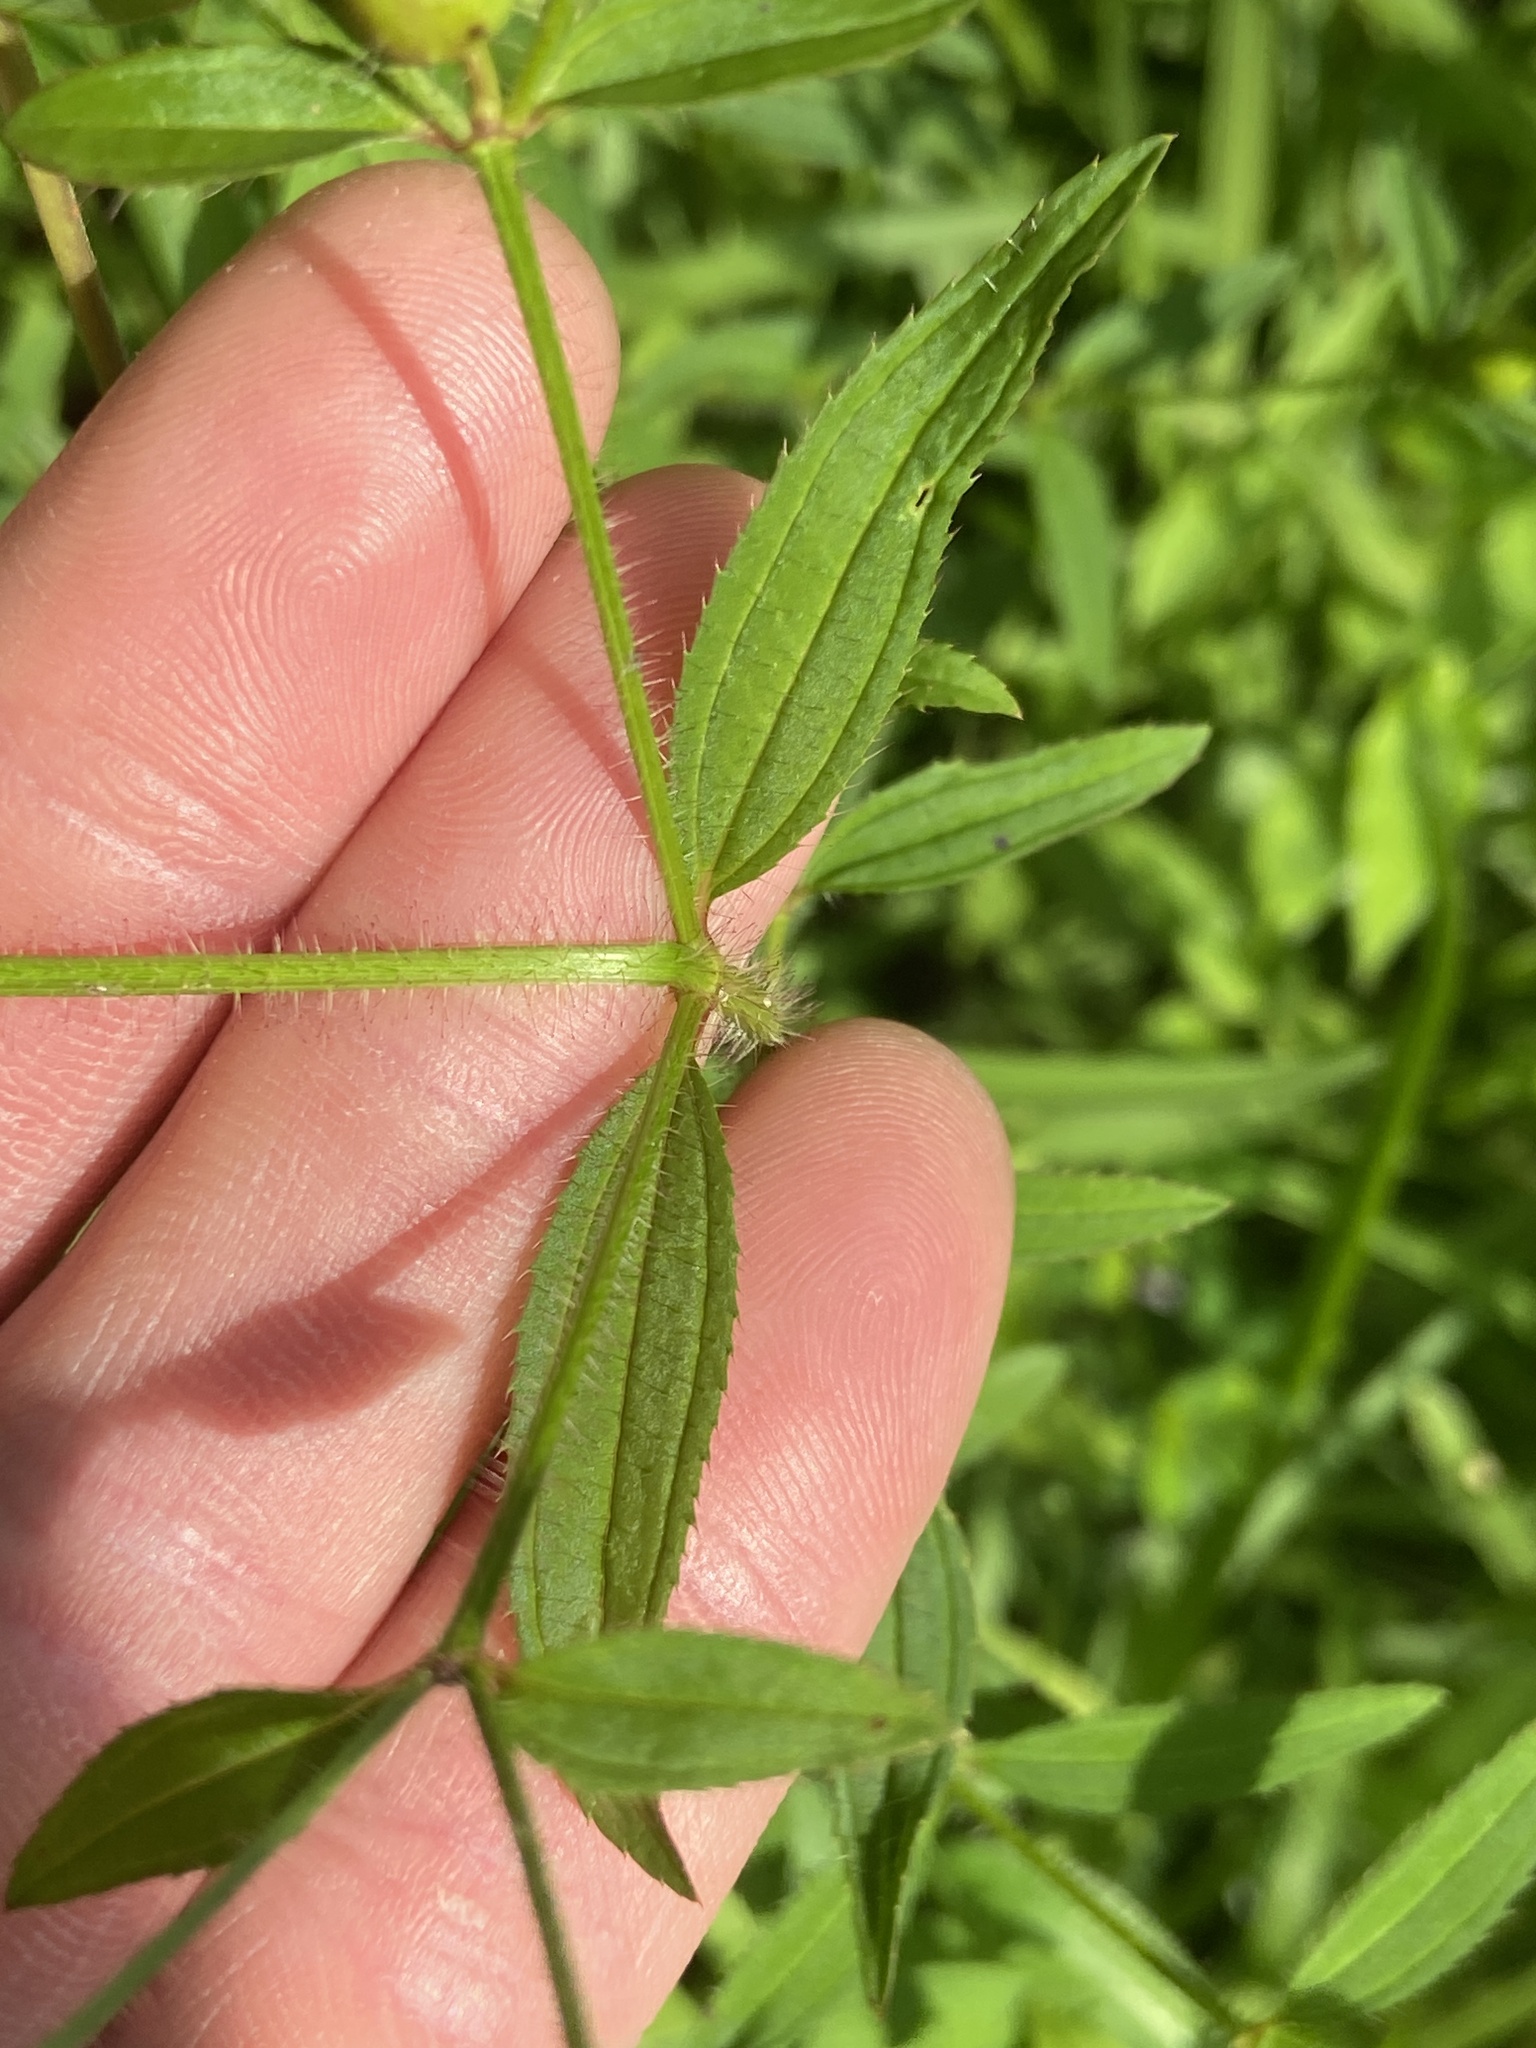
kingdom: Plantae
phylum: Tracheophyta
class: Magnoliopsida
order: Myrtales
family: Melastomataceae
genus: Rhexia
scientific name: Rhexia mariana
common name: Dull meadow-pitcher
